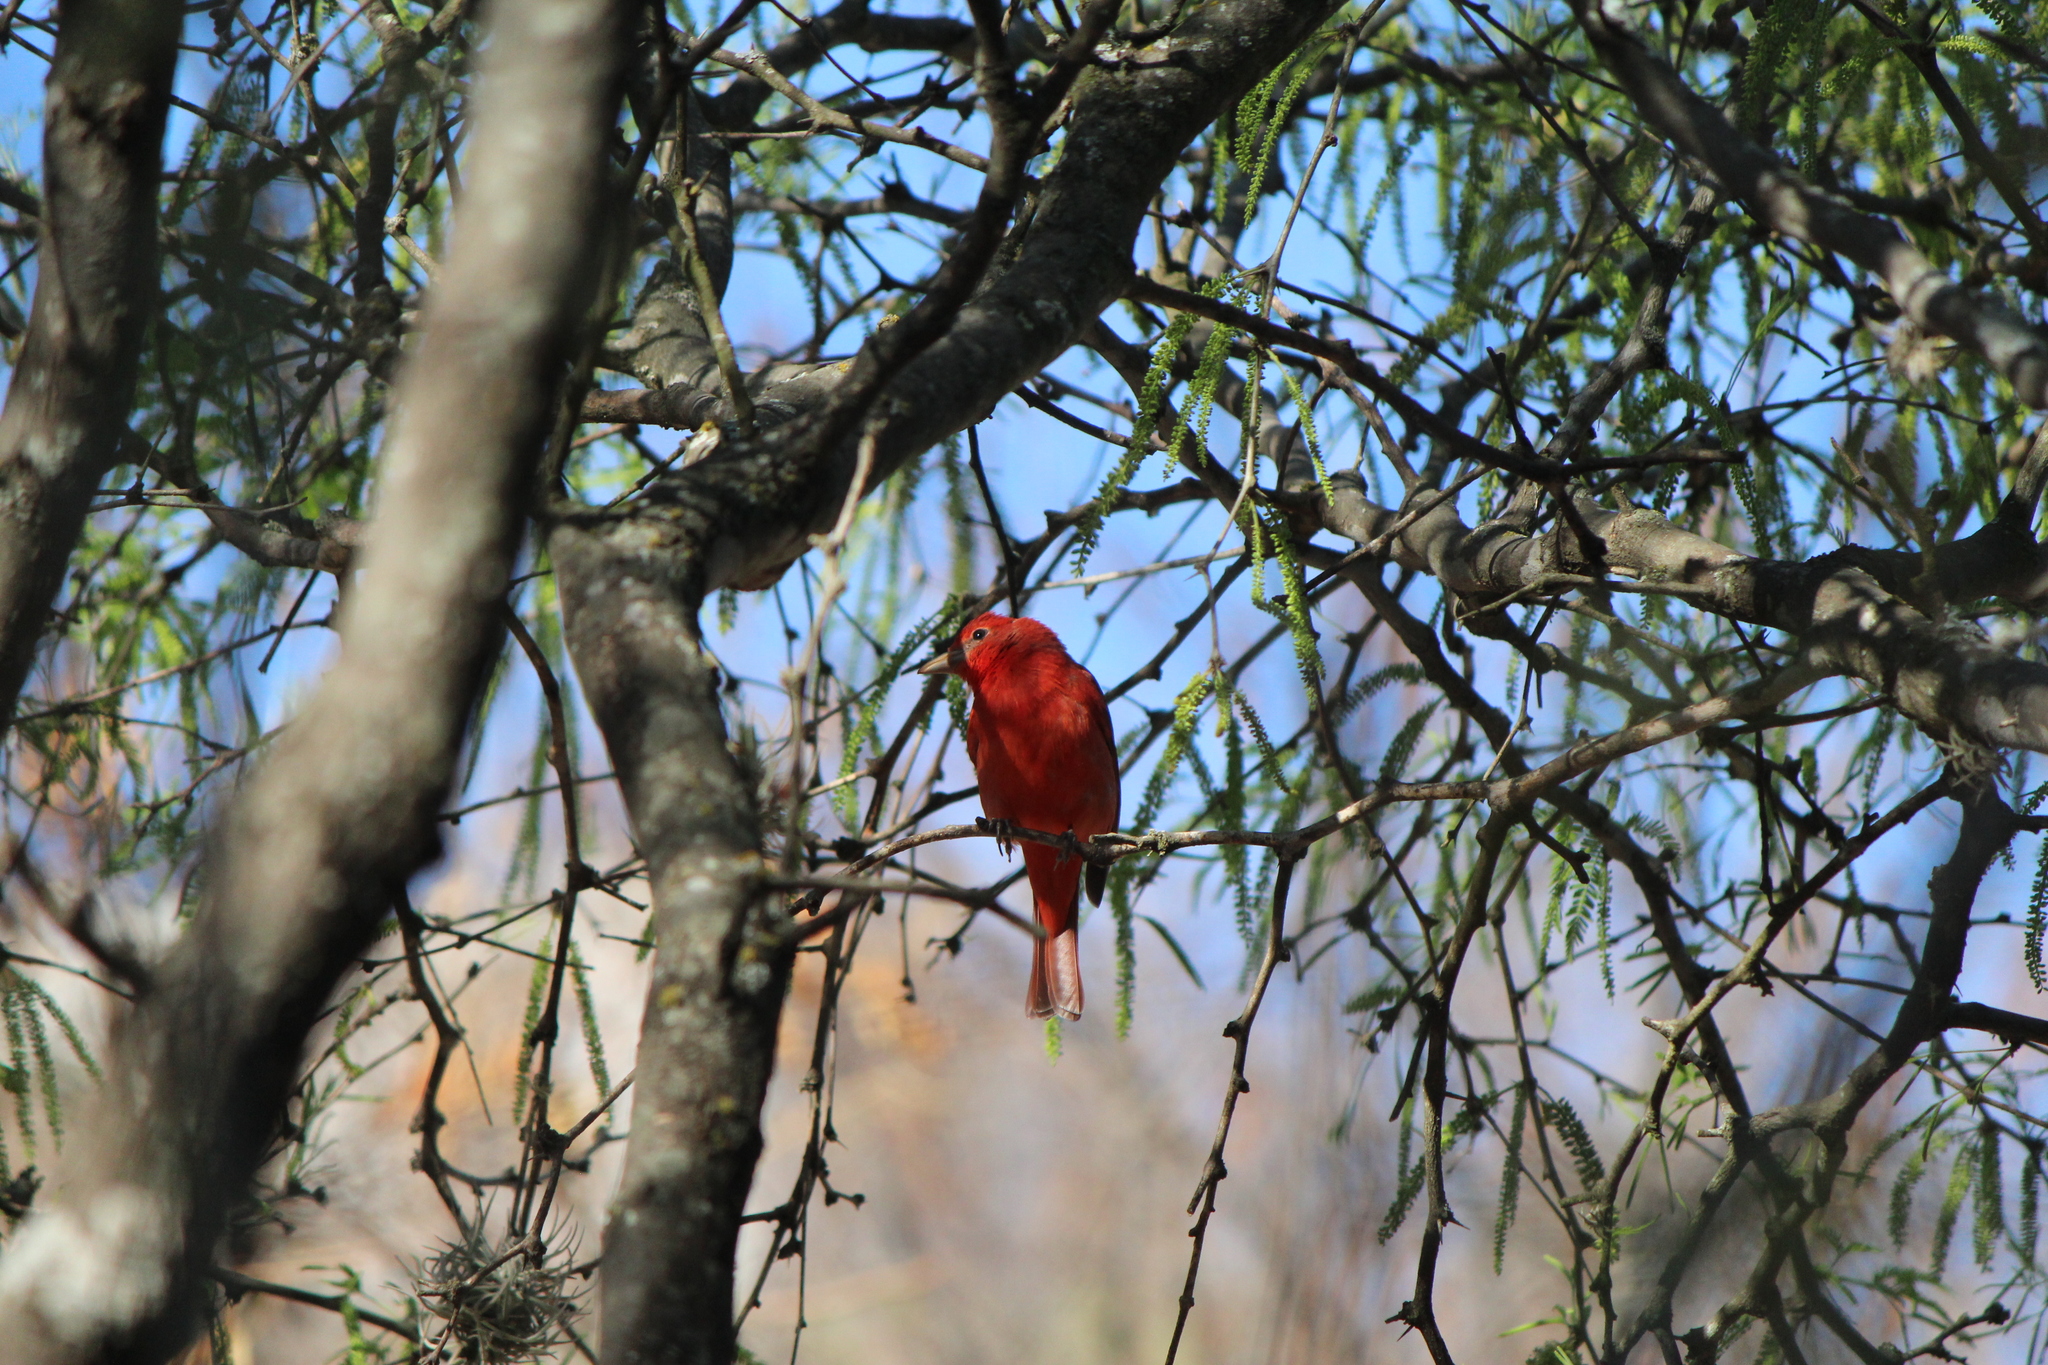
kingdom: Animalia
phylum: Chordata
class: Aves
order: Passeriformes
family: Cardinalidae
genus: Piranga
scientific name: Piranga rubra
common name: Summer tanager
